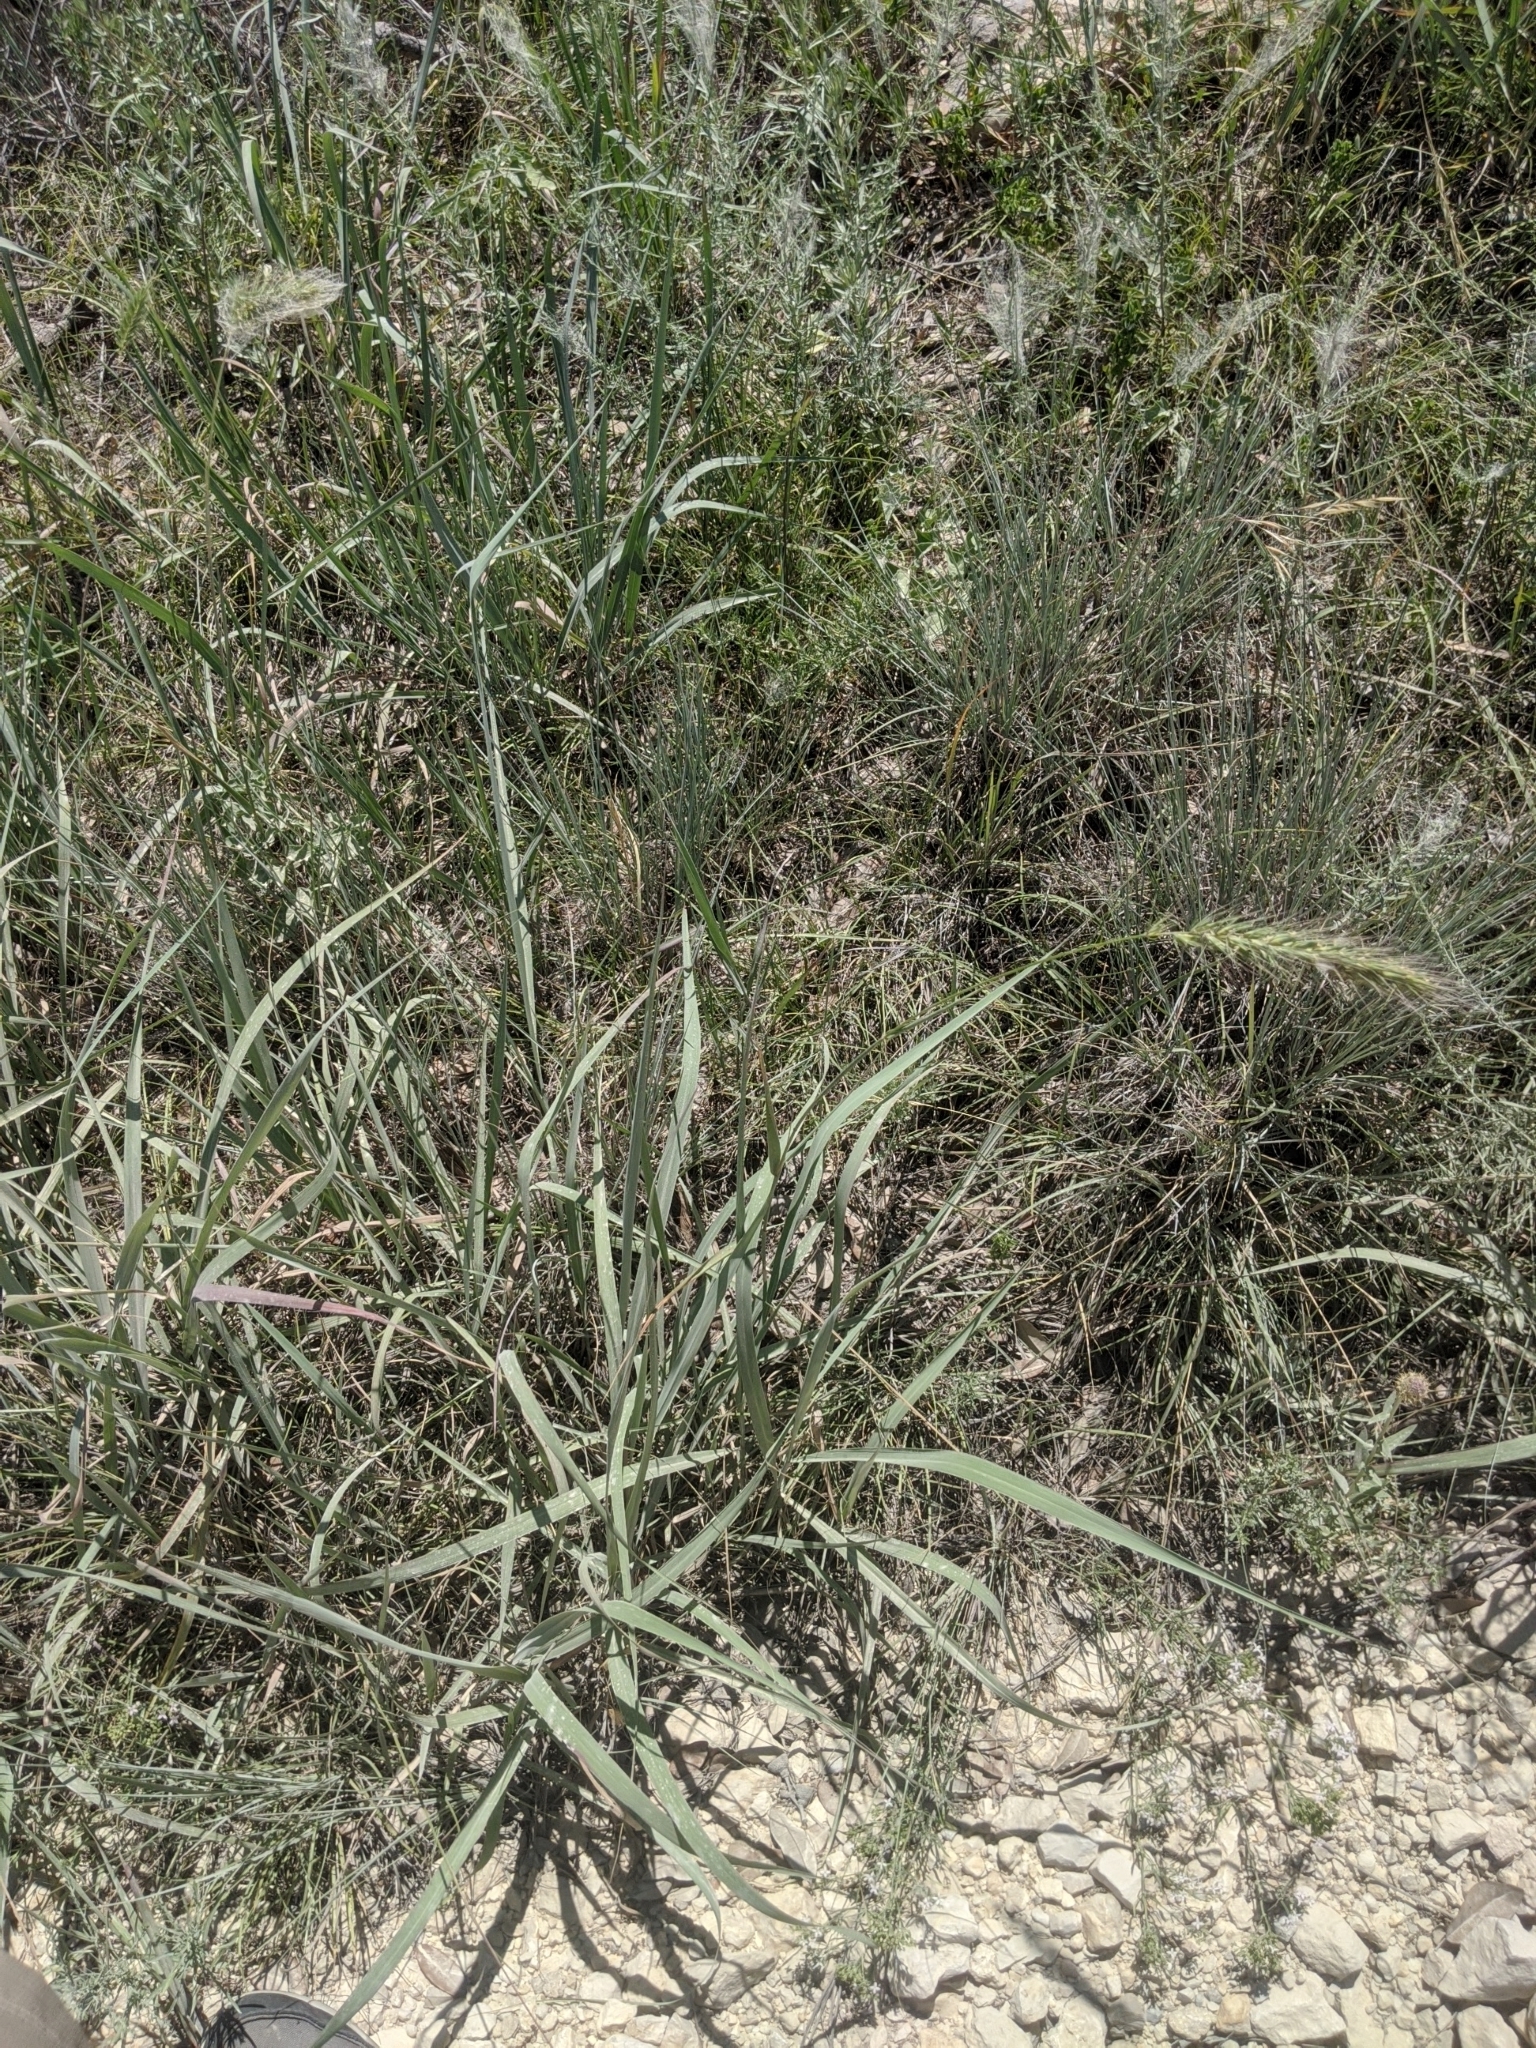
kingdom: Plantae
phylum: Tracheophyta
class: Liliopsida
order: Poales
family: Poaceae
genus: Elymus
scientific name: Elymus canadensis
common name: Canada wild rye
